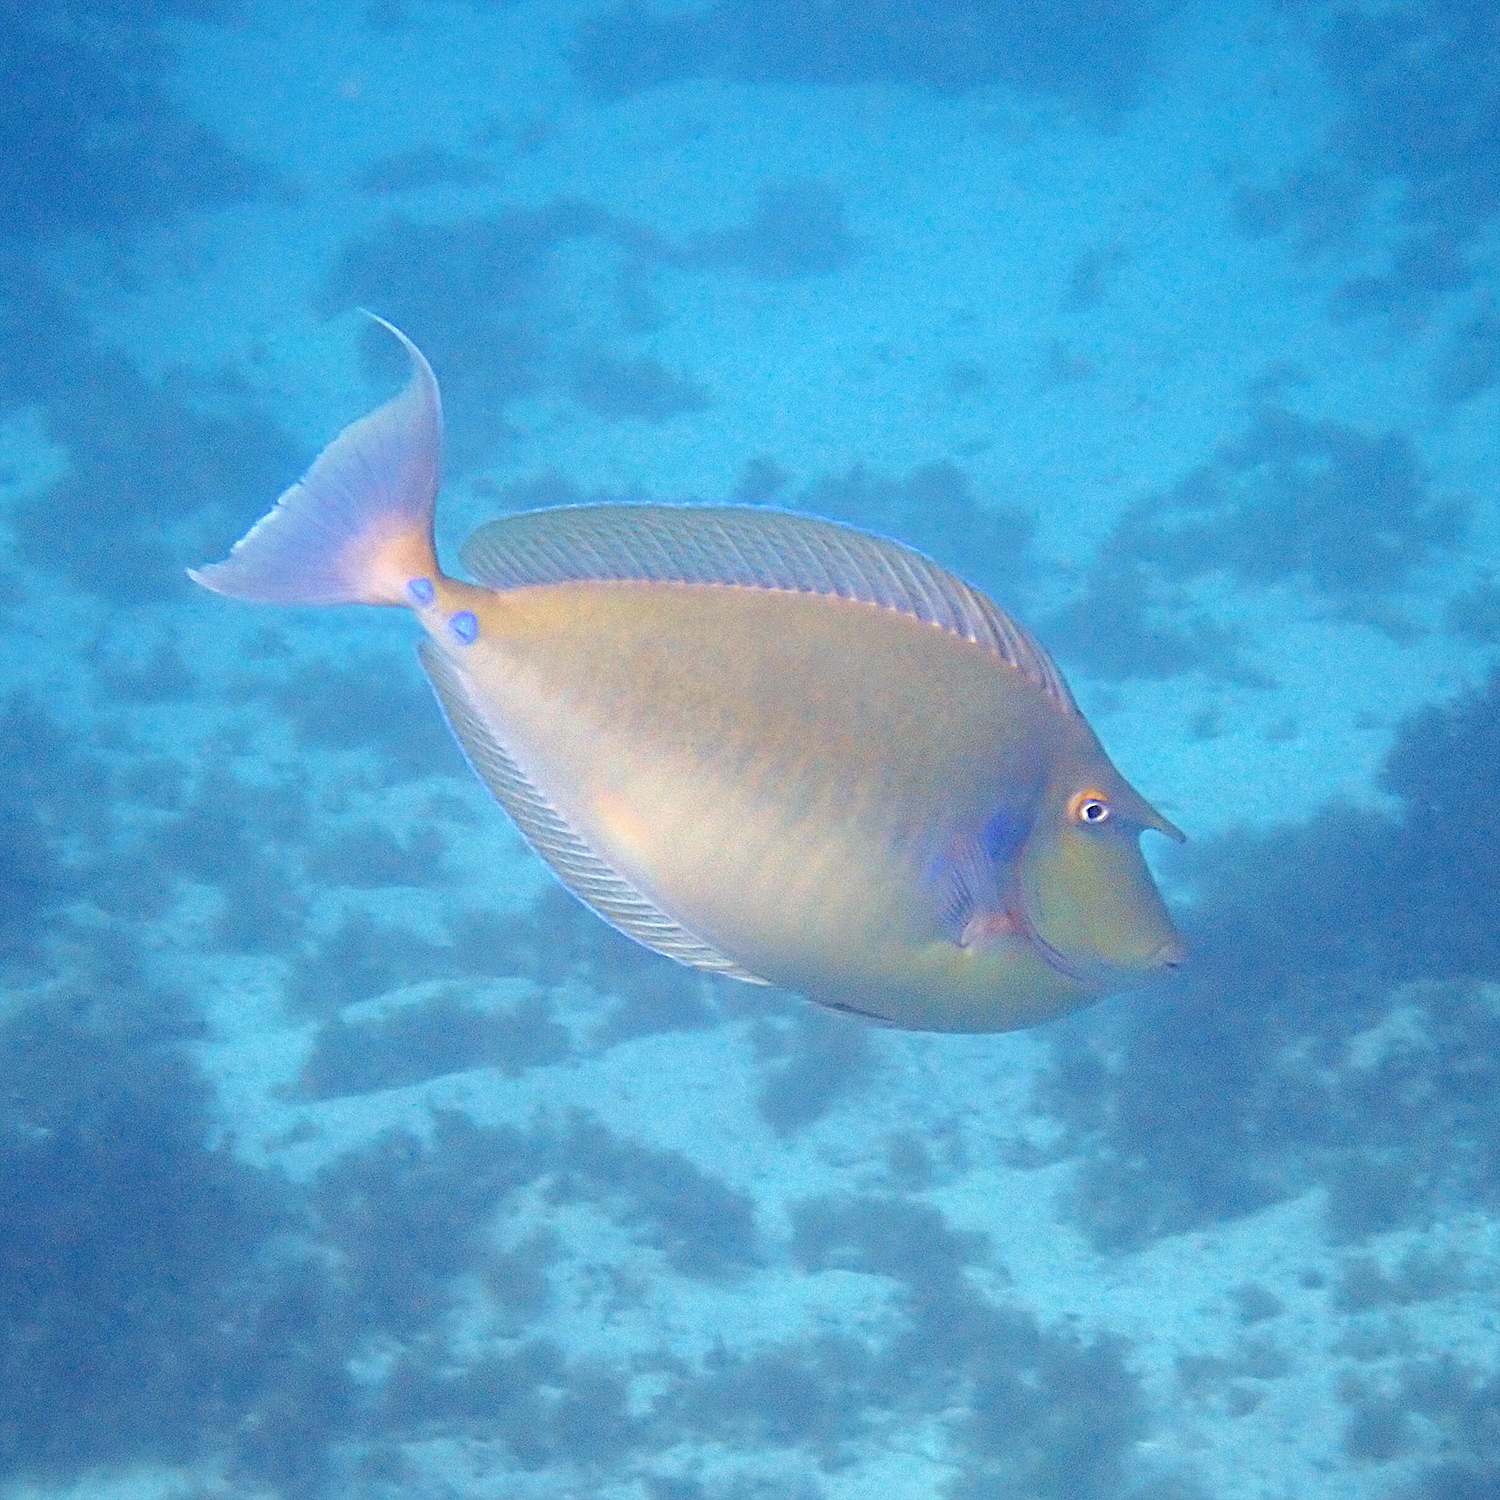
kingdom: Animalia
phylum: Chordata
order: Perciformes
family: Acanthuridae
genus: Naso
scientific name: Naso unicornis
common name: Bluespine unicornfish
